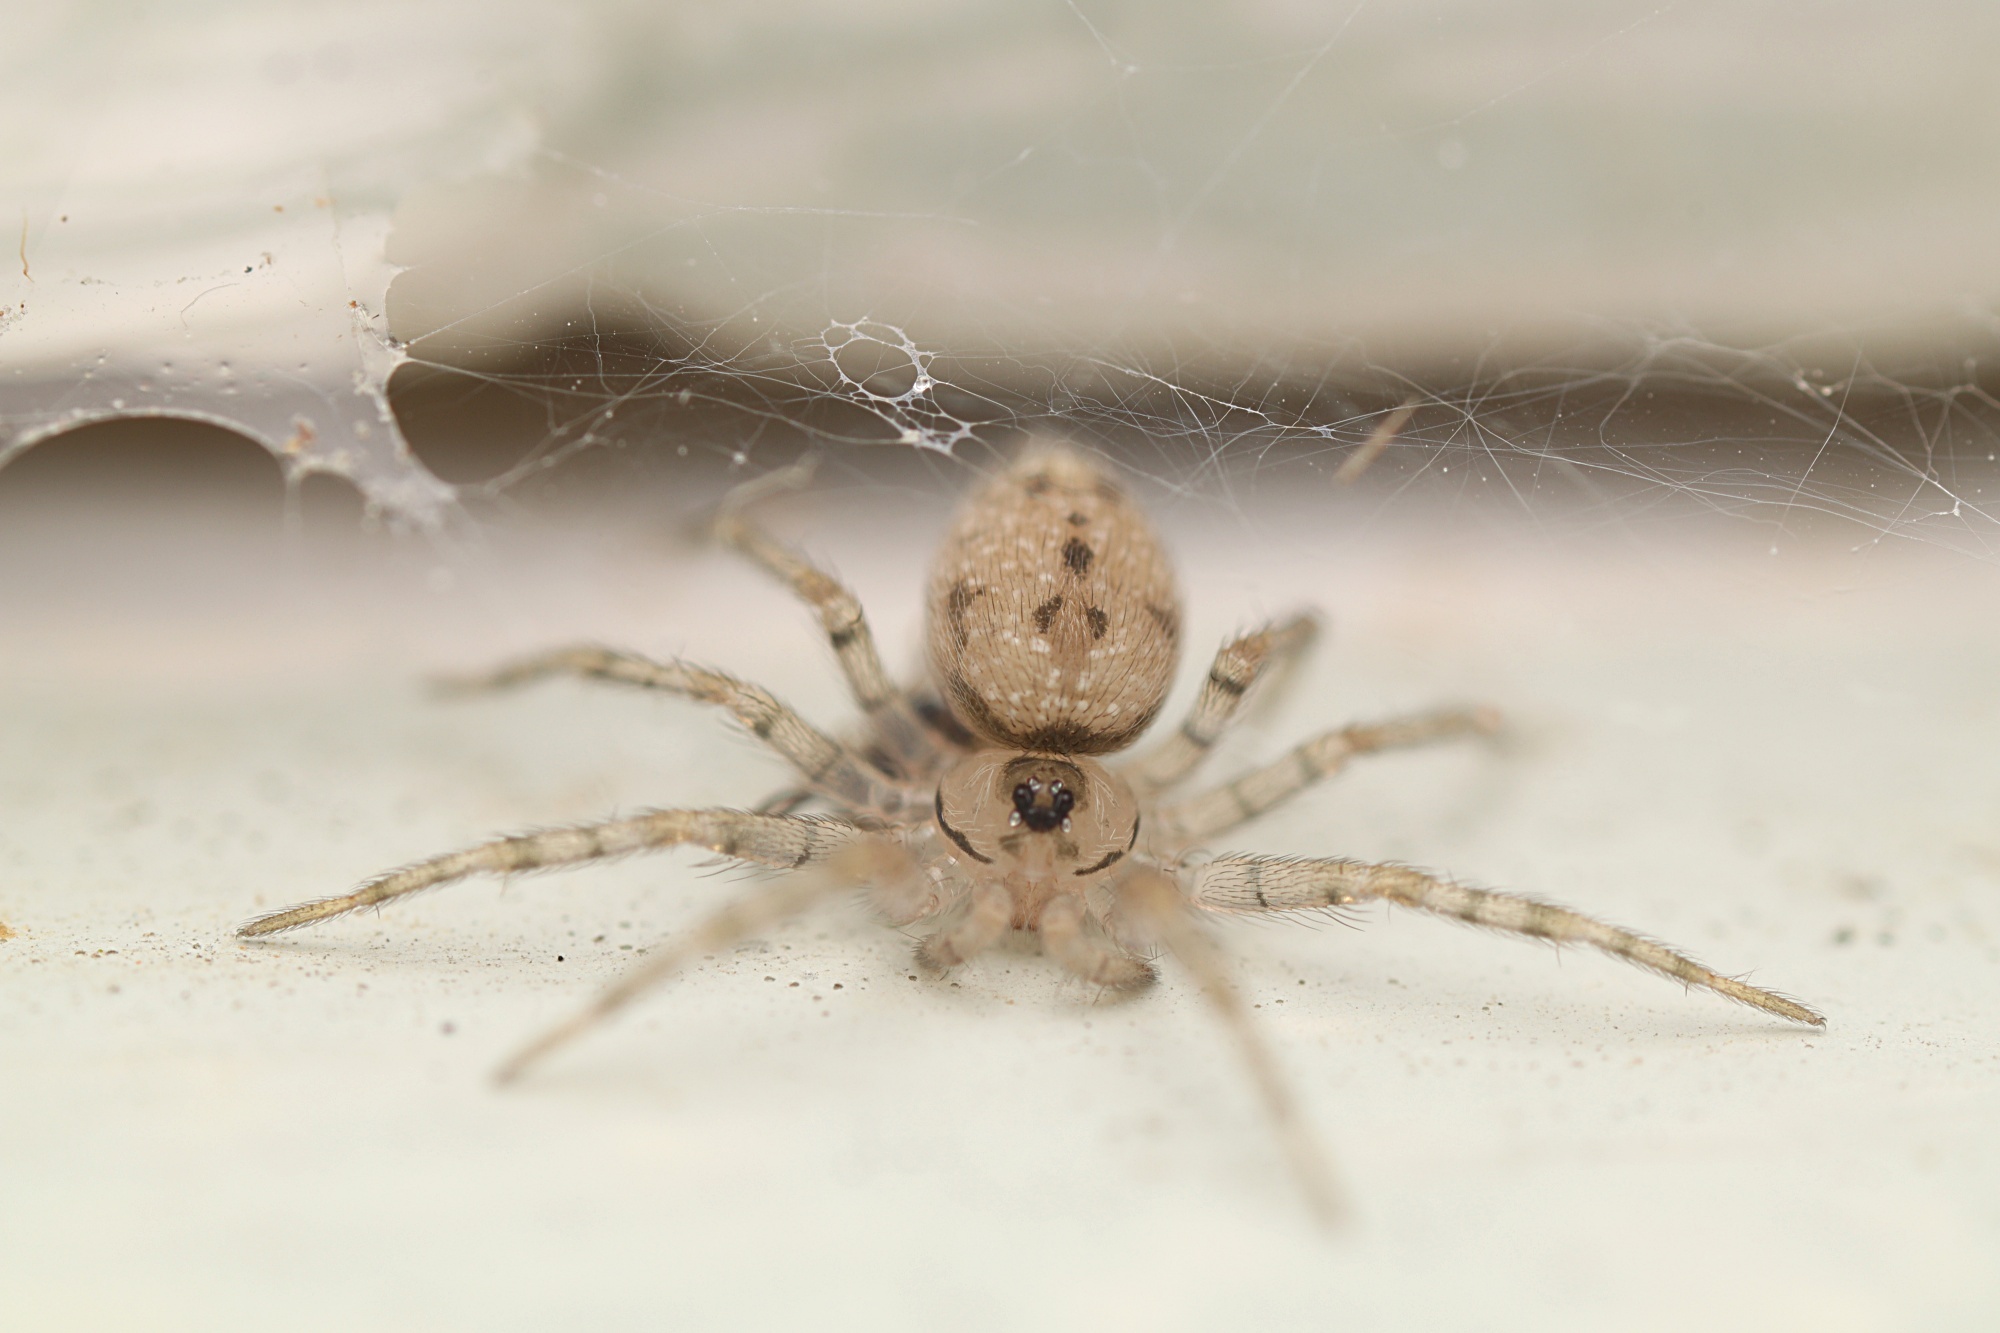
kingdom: Animalia
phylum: Arthropoda
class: Arachnida
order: Araneae
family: Oecobiidae
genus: Oecobius
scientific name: Oecobius navus
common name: Flatmesh weaver
